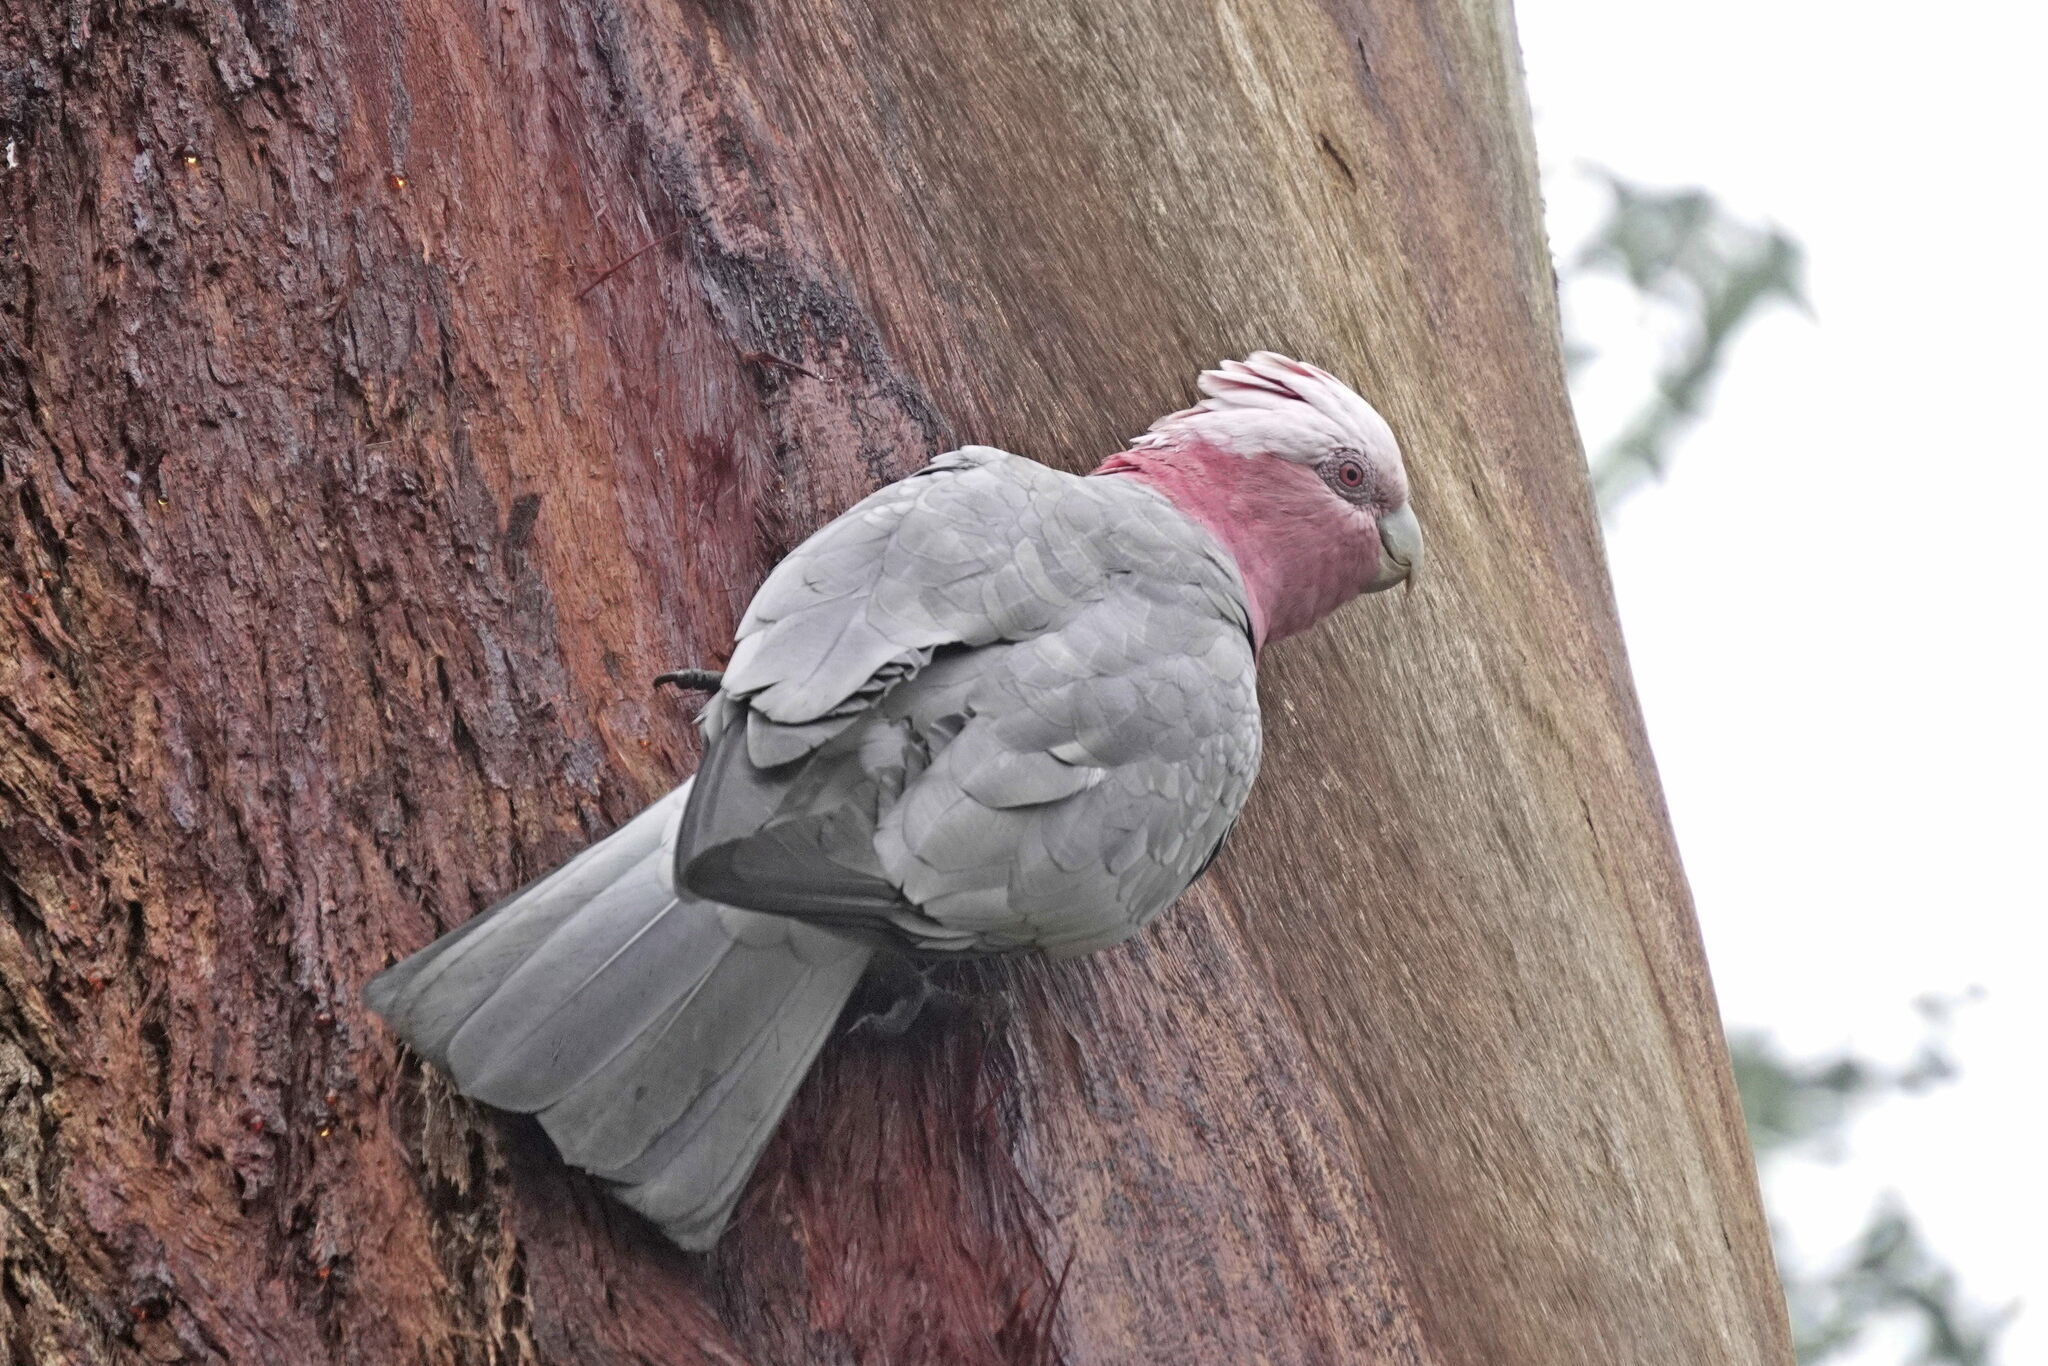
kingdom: Animalia
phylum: Chordata
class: Aves
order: Psittaciformes
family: Psittacidae
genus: Eolophus
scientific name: Eolophus roseicapilla
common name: Galah
